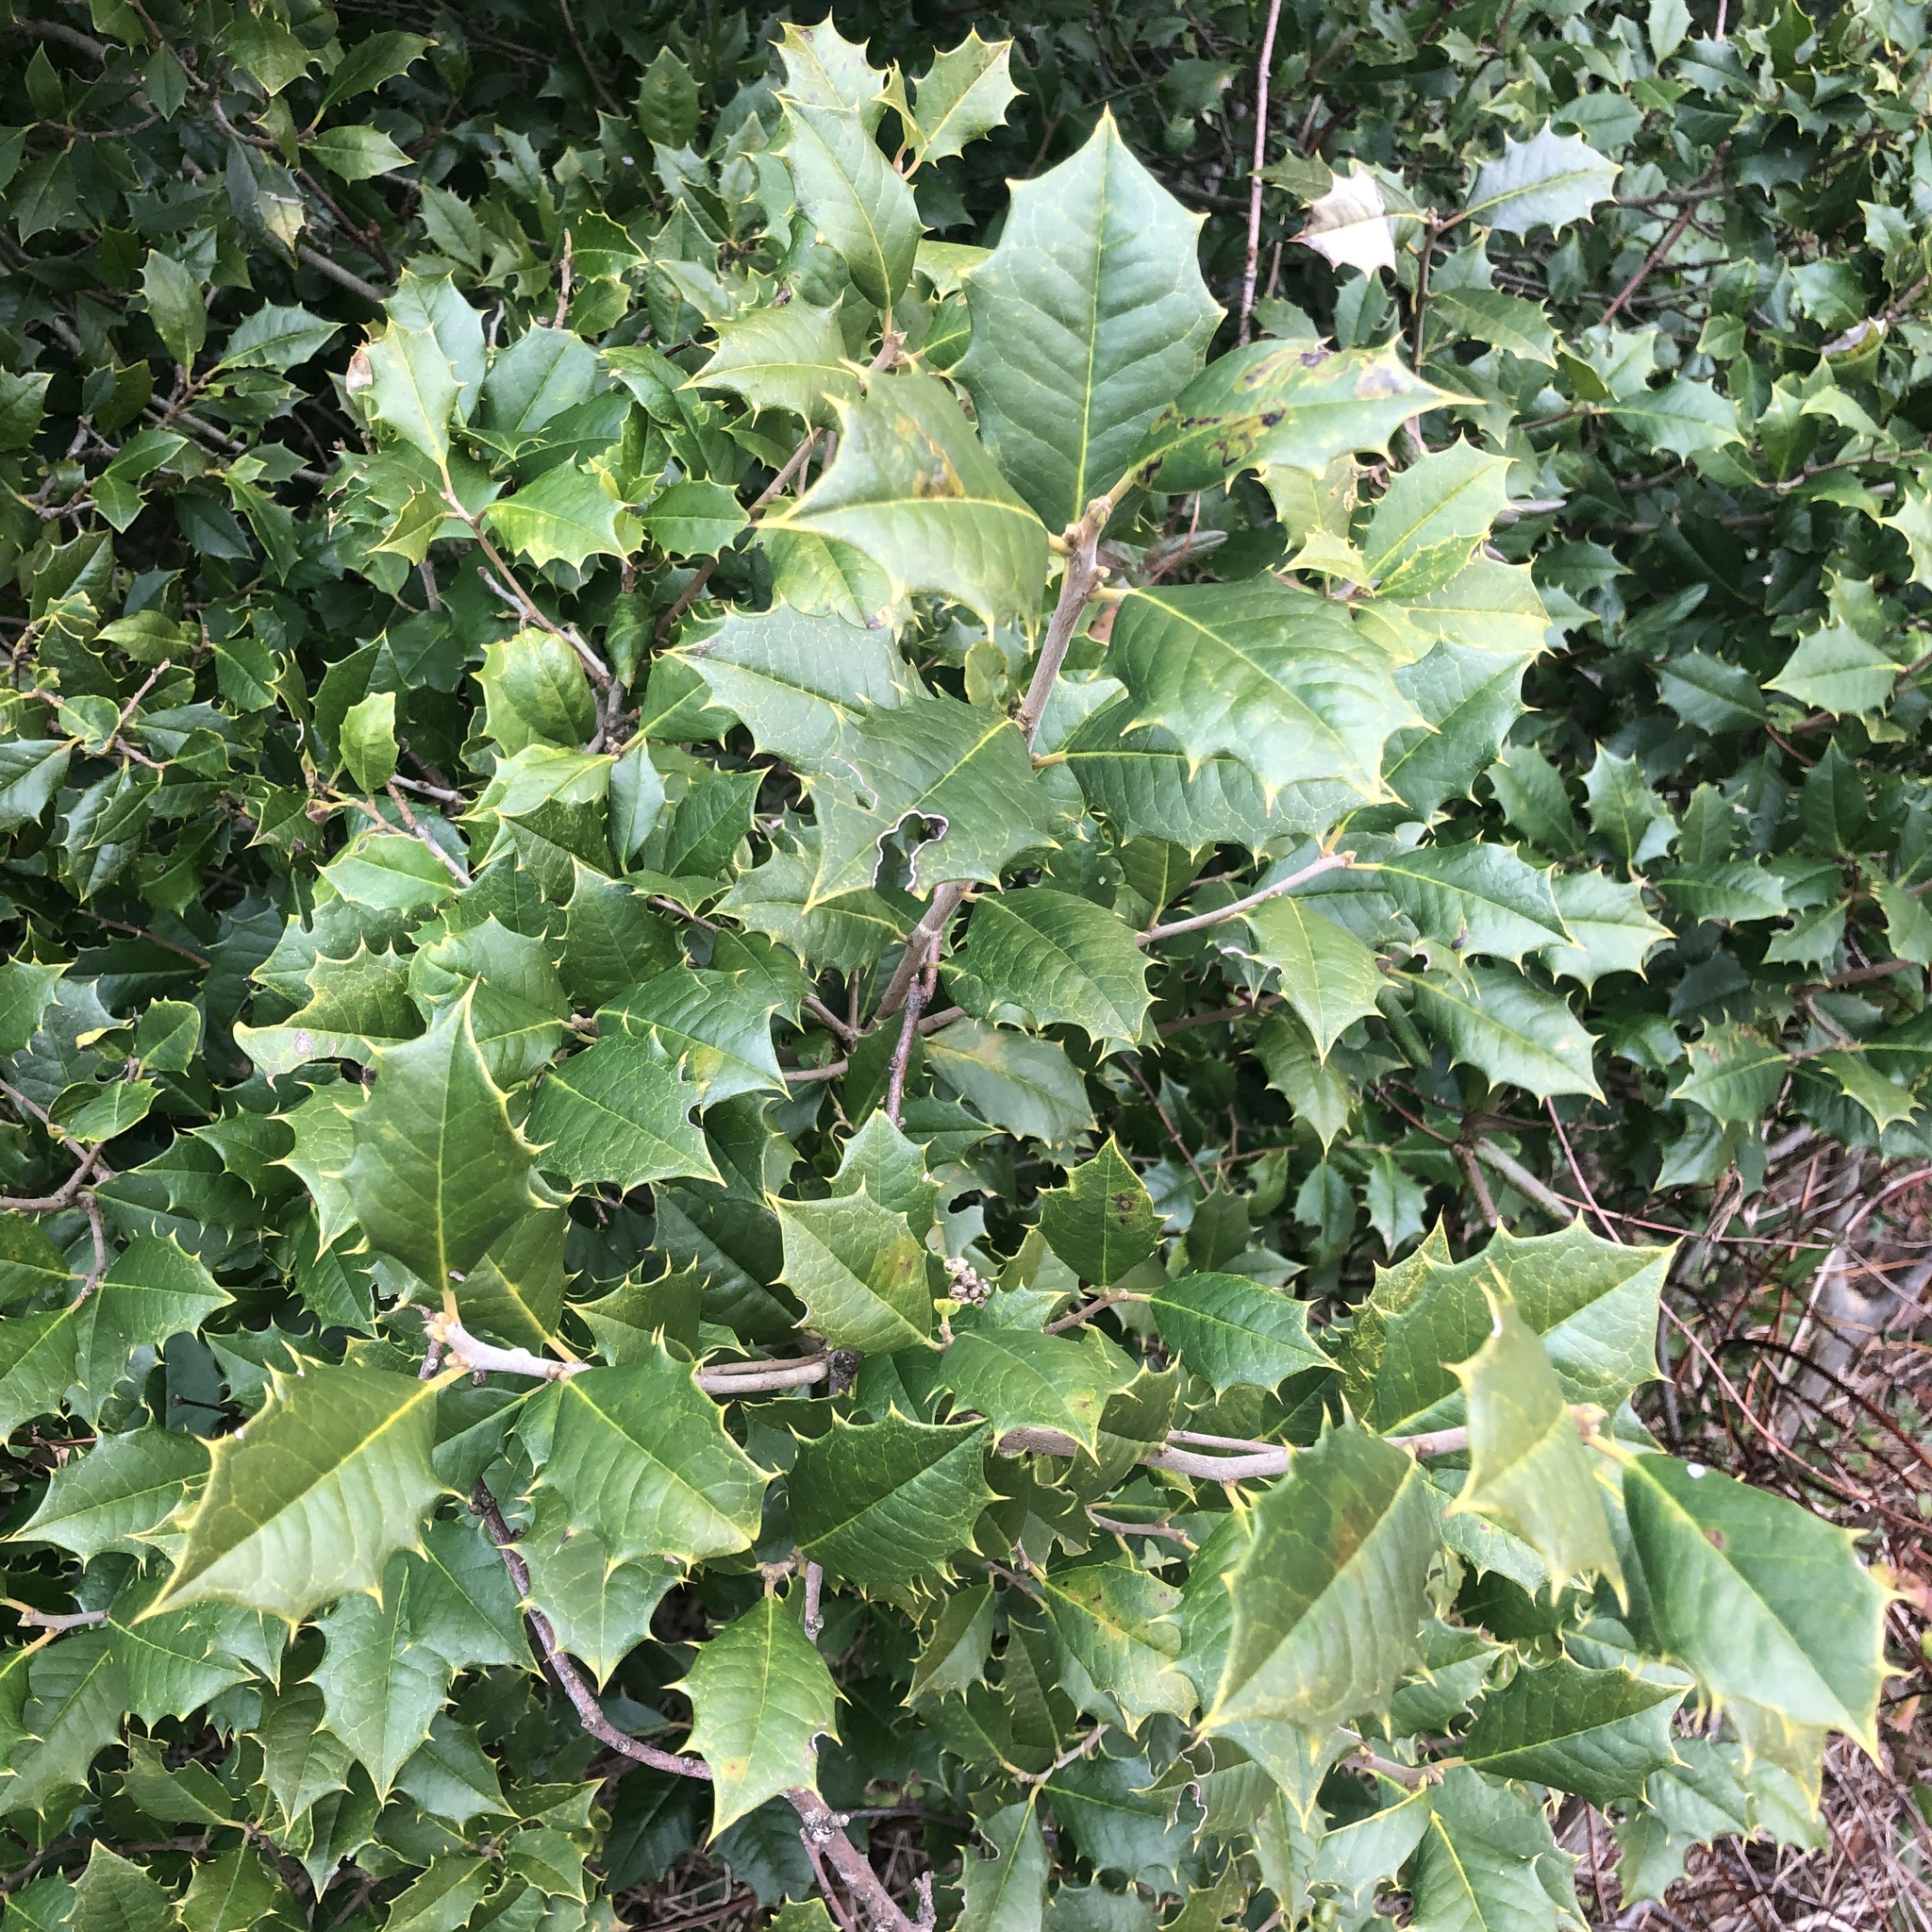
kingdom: Plantae
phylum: Tracheophyta
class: Magnoliopsida
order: Aquifoliales
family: Aquifoliaceae
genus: Ilex
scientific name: Ilex opaca
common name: American holly
